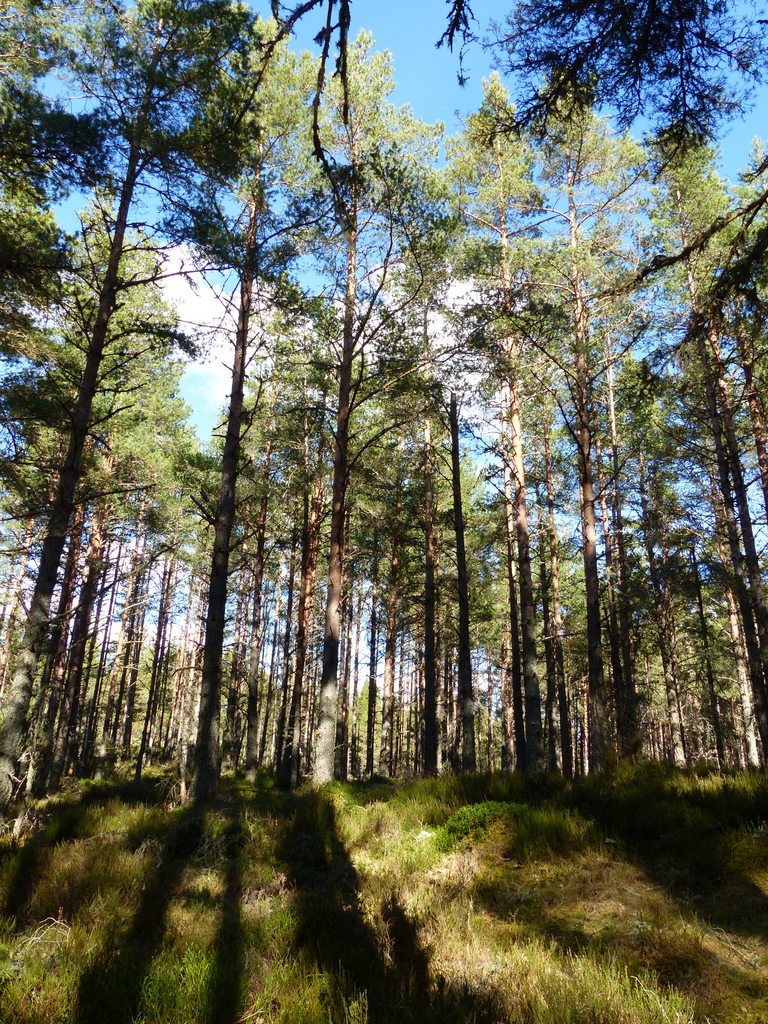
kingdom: Plantae
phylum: Tracheophyta
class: Pinopsida
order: Pinales
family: Pinaceae
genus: Pinus
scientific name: Pinus sylvestris
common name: Scots pine
